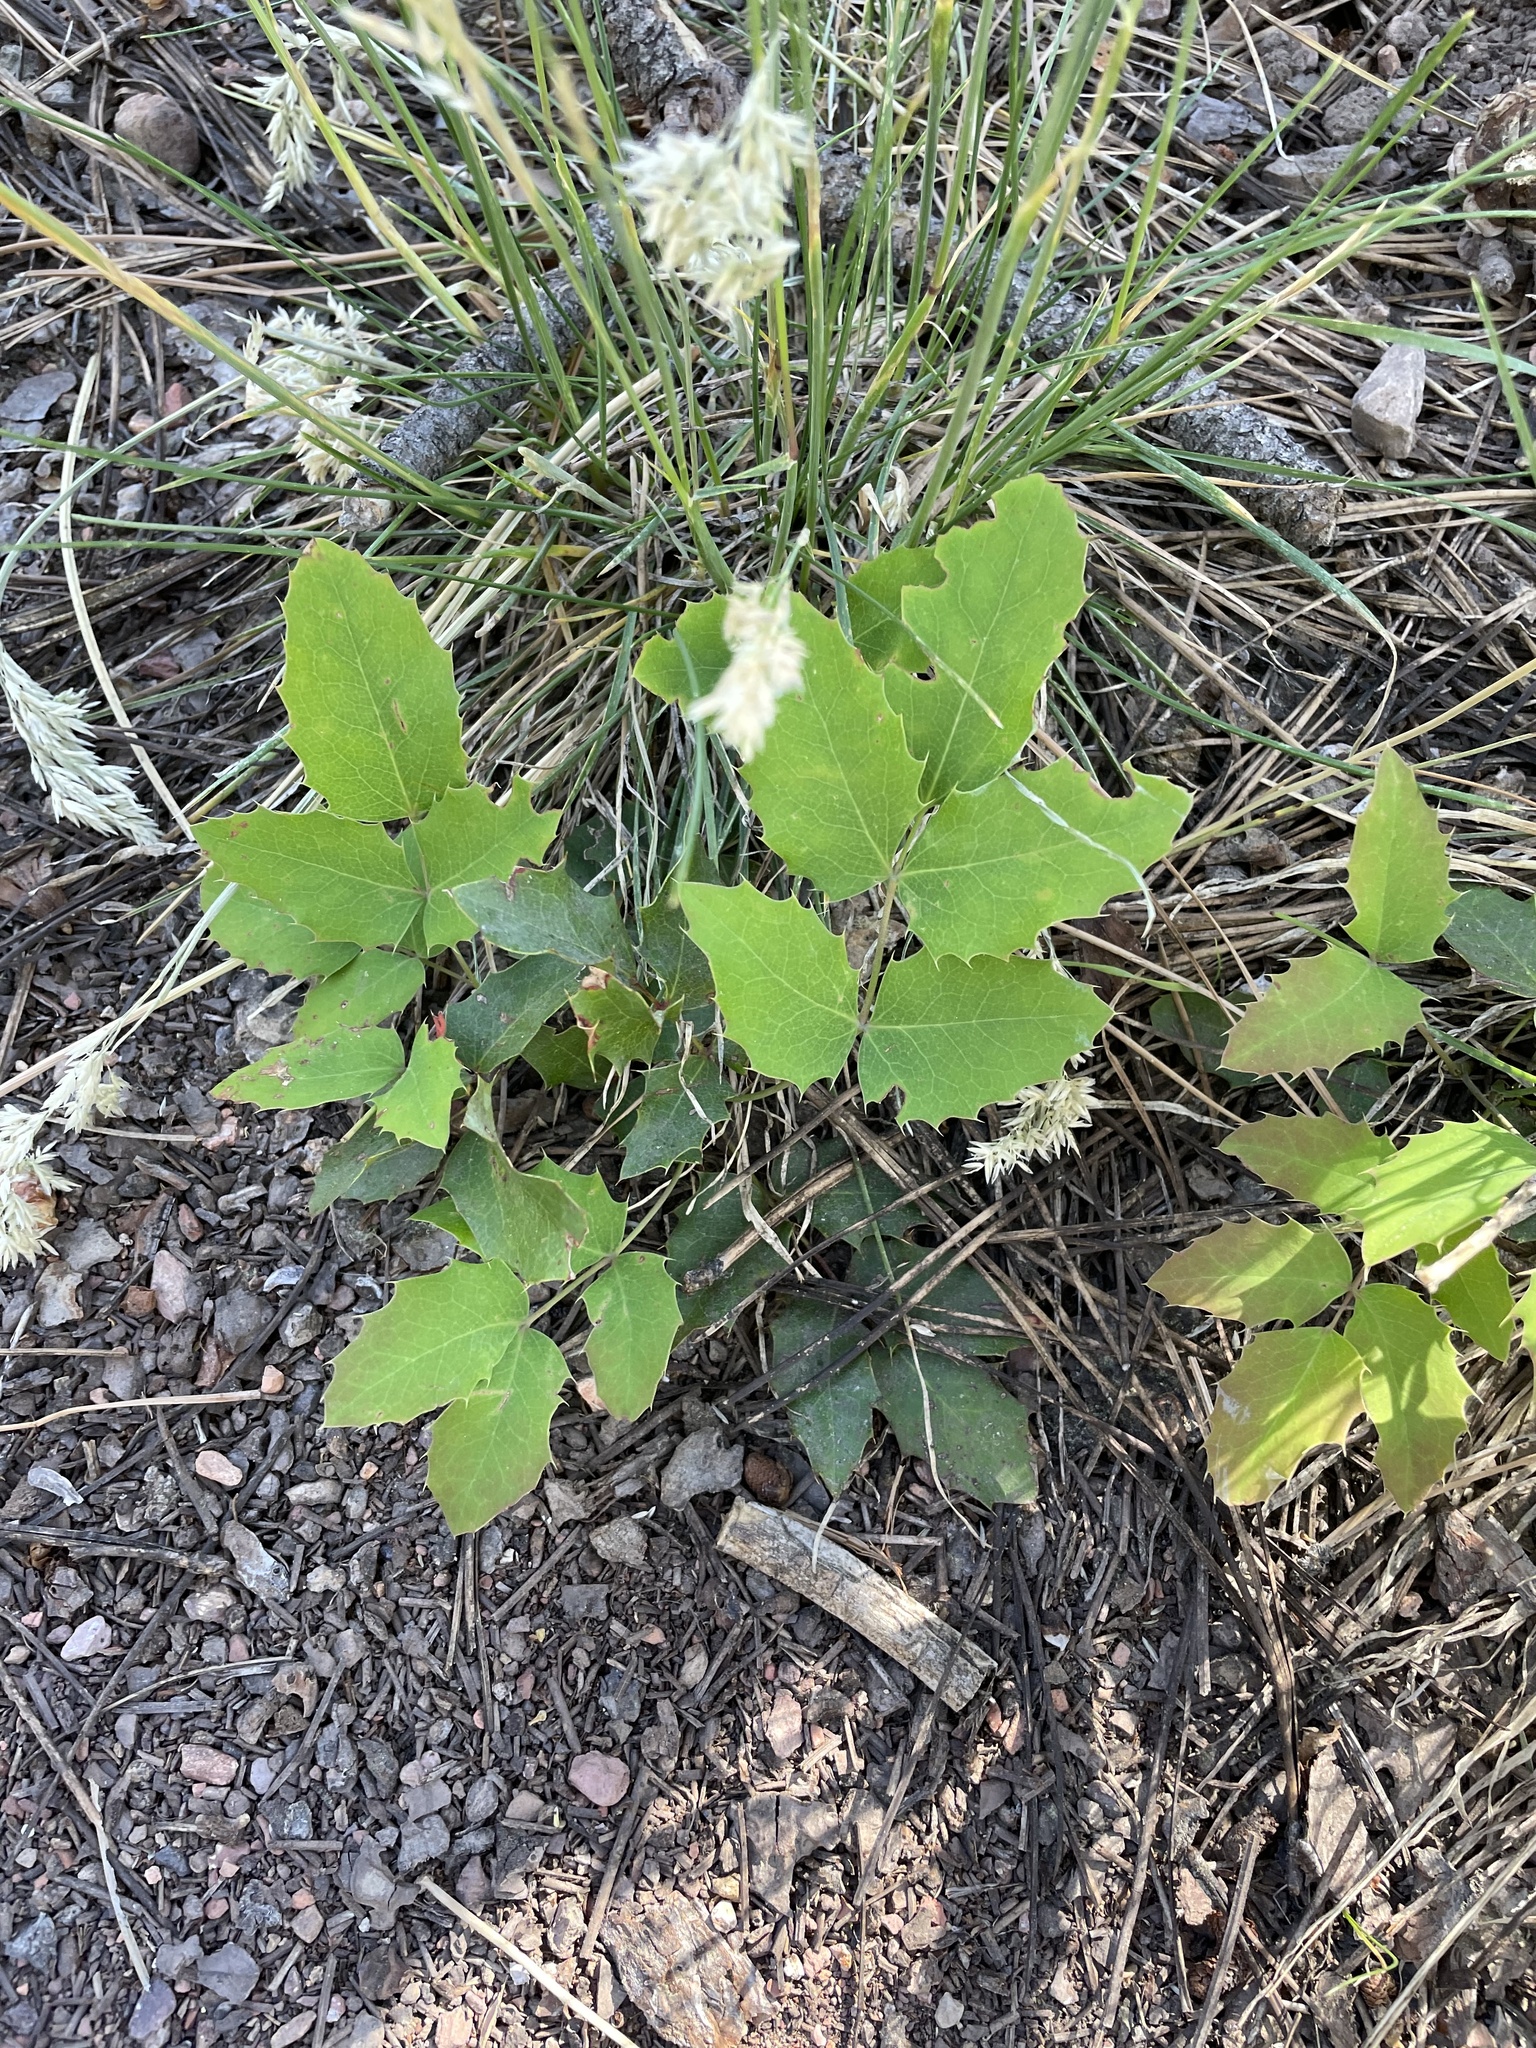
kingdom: Plantae
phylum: Tracheophyta
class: Magnoliopsida
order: Ranunculales
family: Berberidaceae
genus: Mahonia
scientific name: Mahonia repens
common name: Creeping oregon-grape
